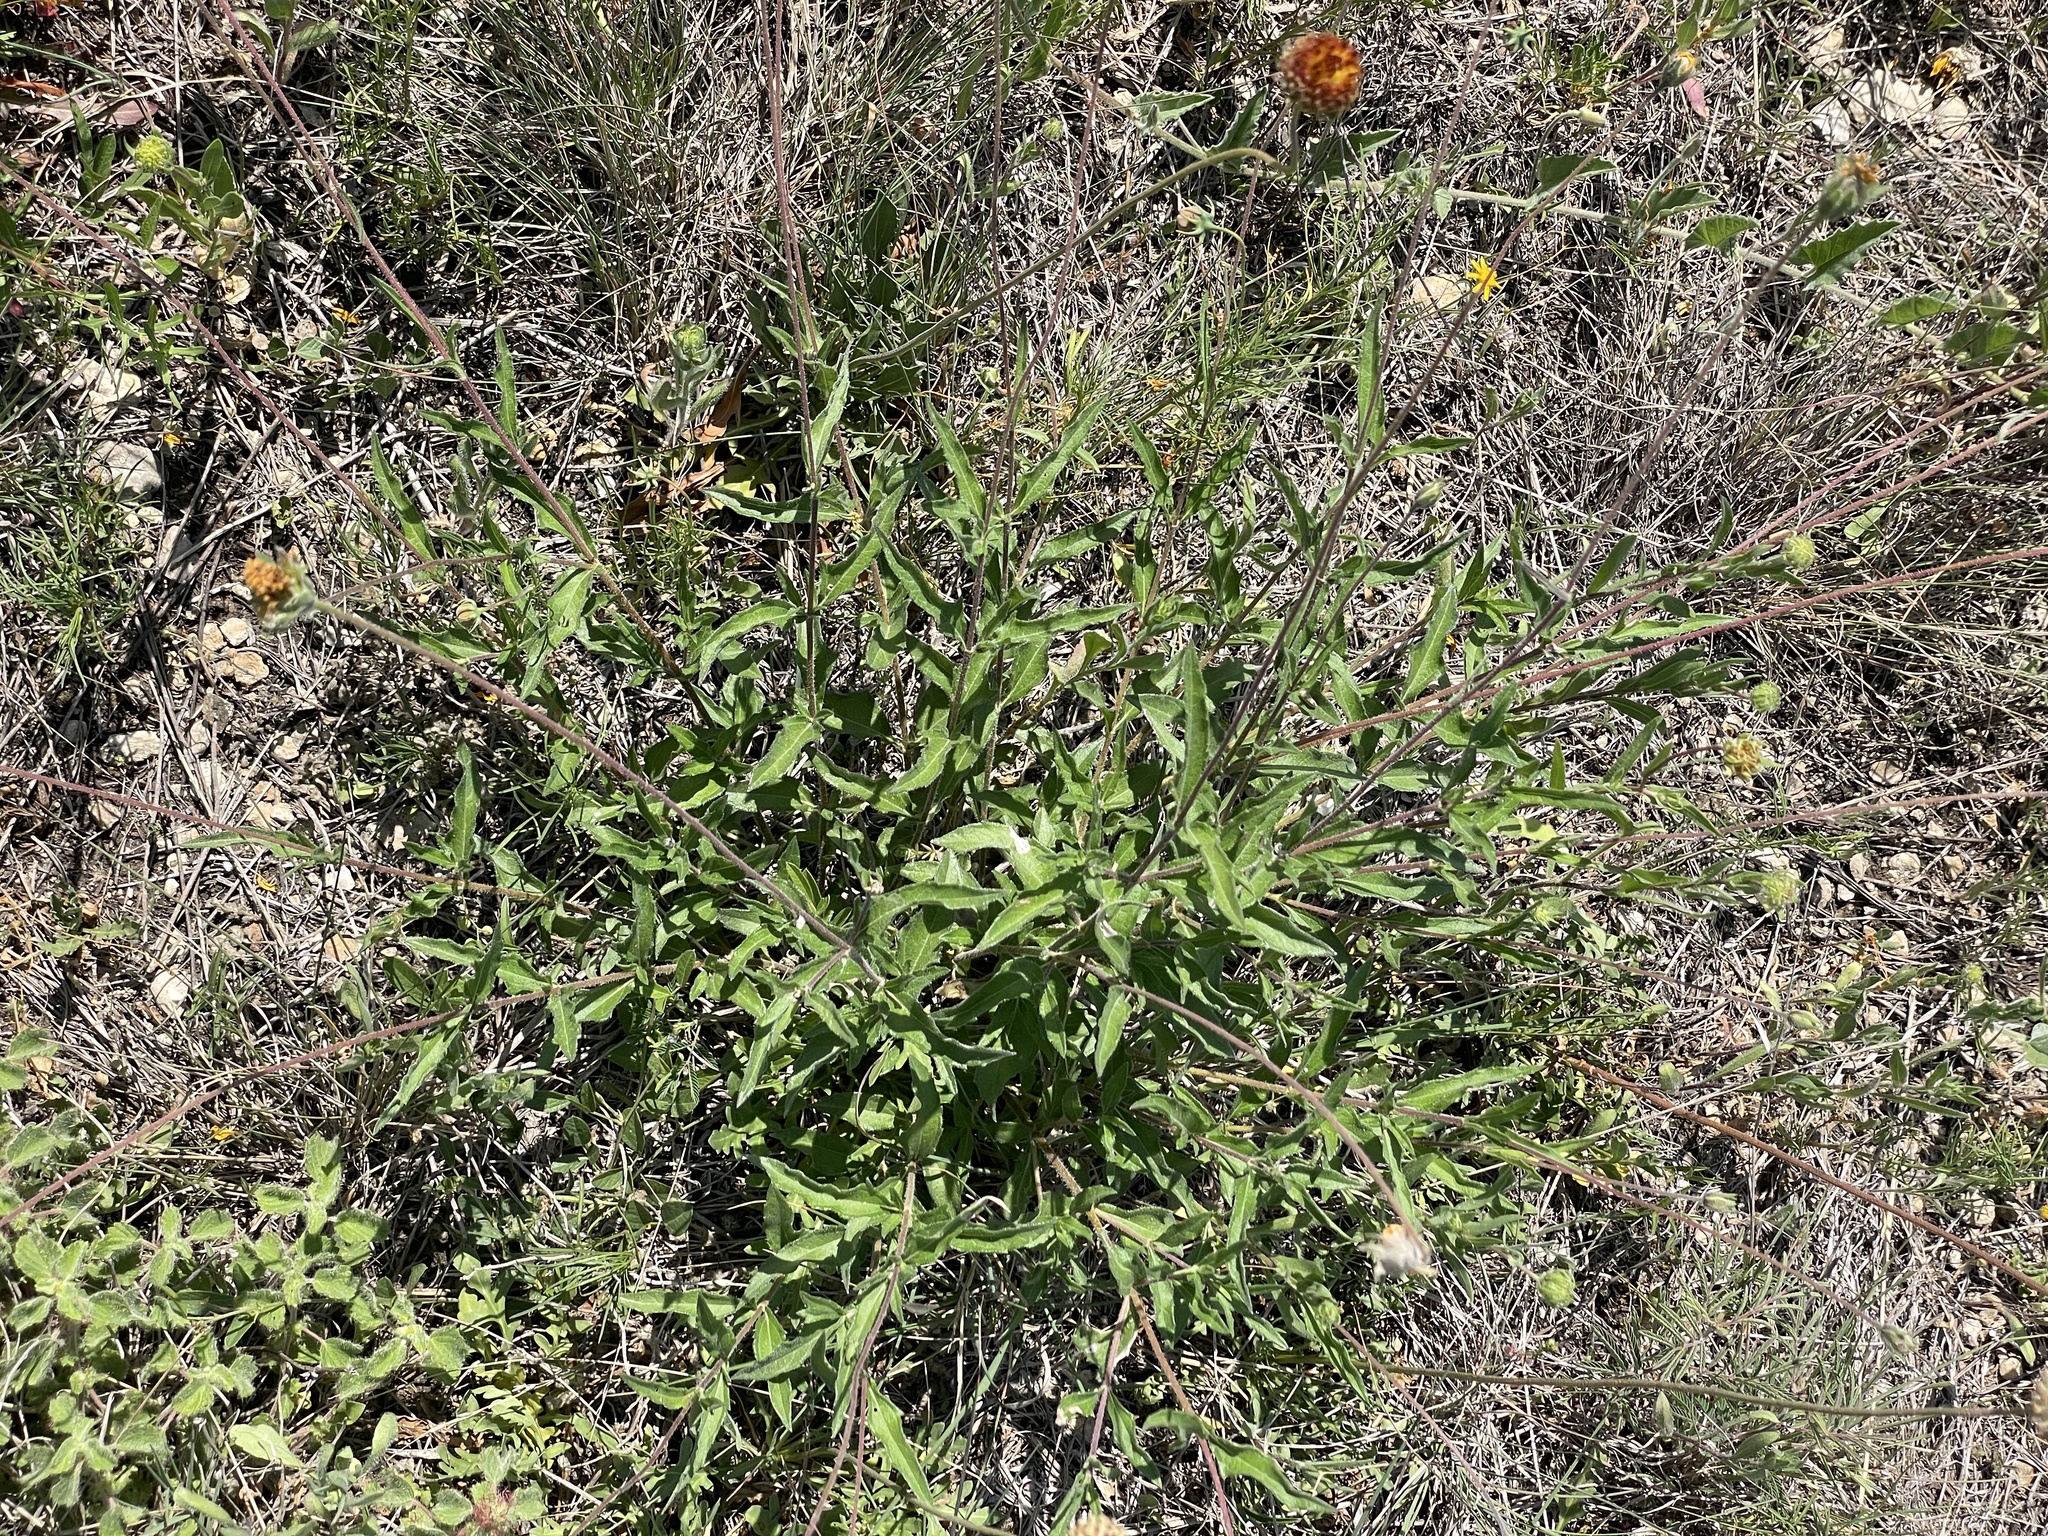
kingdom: Plantae
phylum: Tracheophyta
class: Magnoliopsida
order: Asterales
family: Asteraceae
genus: Wedelia
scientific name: Wedelia acapulcensis
